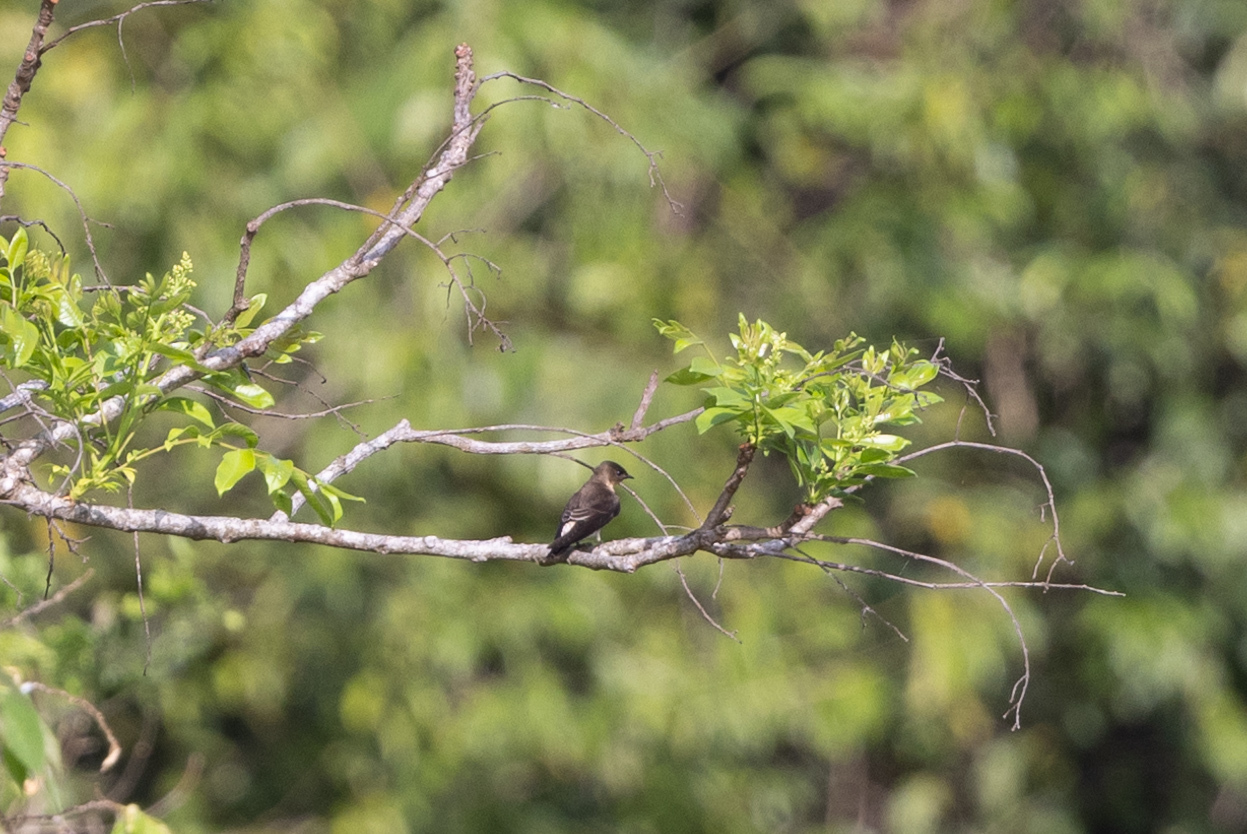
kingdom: Animalia
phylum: Chordata
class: Aves
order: Passeriformes
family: Hirundinidae
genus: Stelgidopteryx
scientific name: Stelgidopteryx ruficollis
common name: Southern rough-winged swallow
